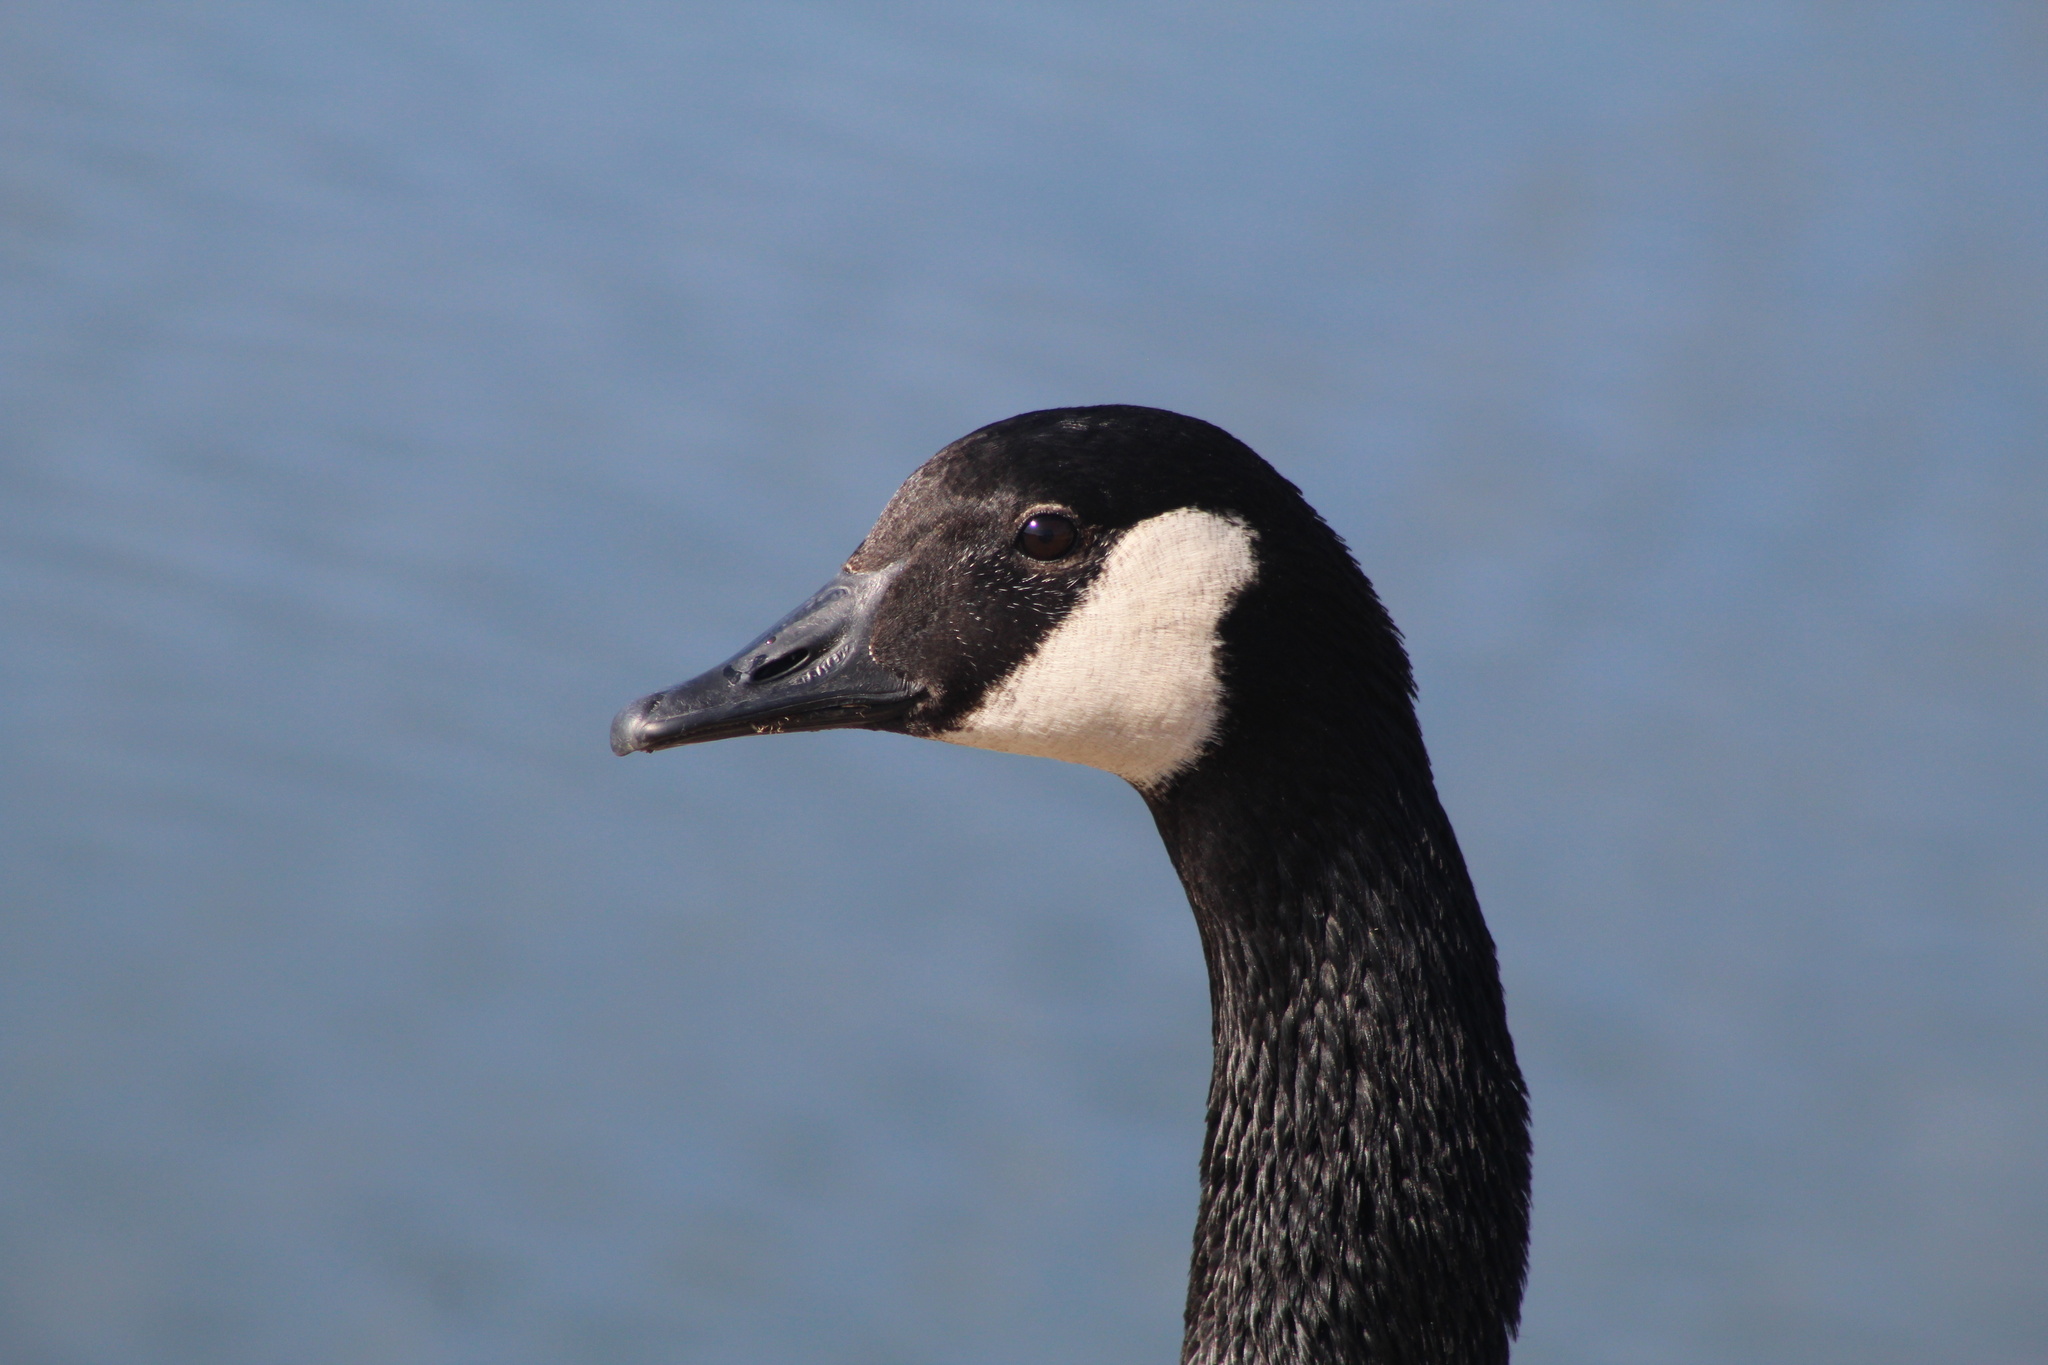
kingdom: Animalia
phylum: Chordata
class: Aves
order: Anseriformes
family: Anatidae
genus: Branta
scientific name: Branta canadensis
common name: Canada goose
